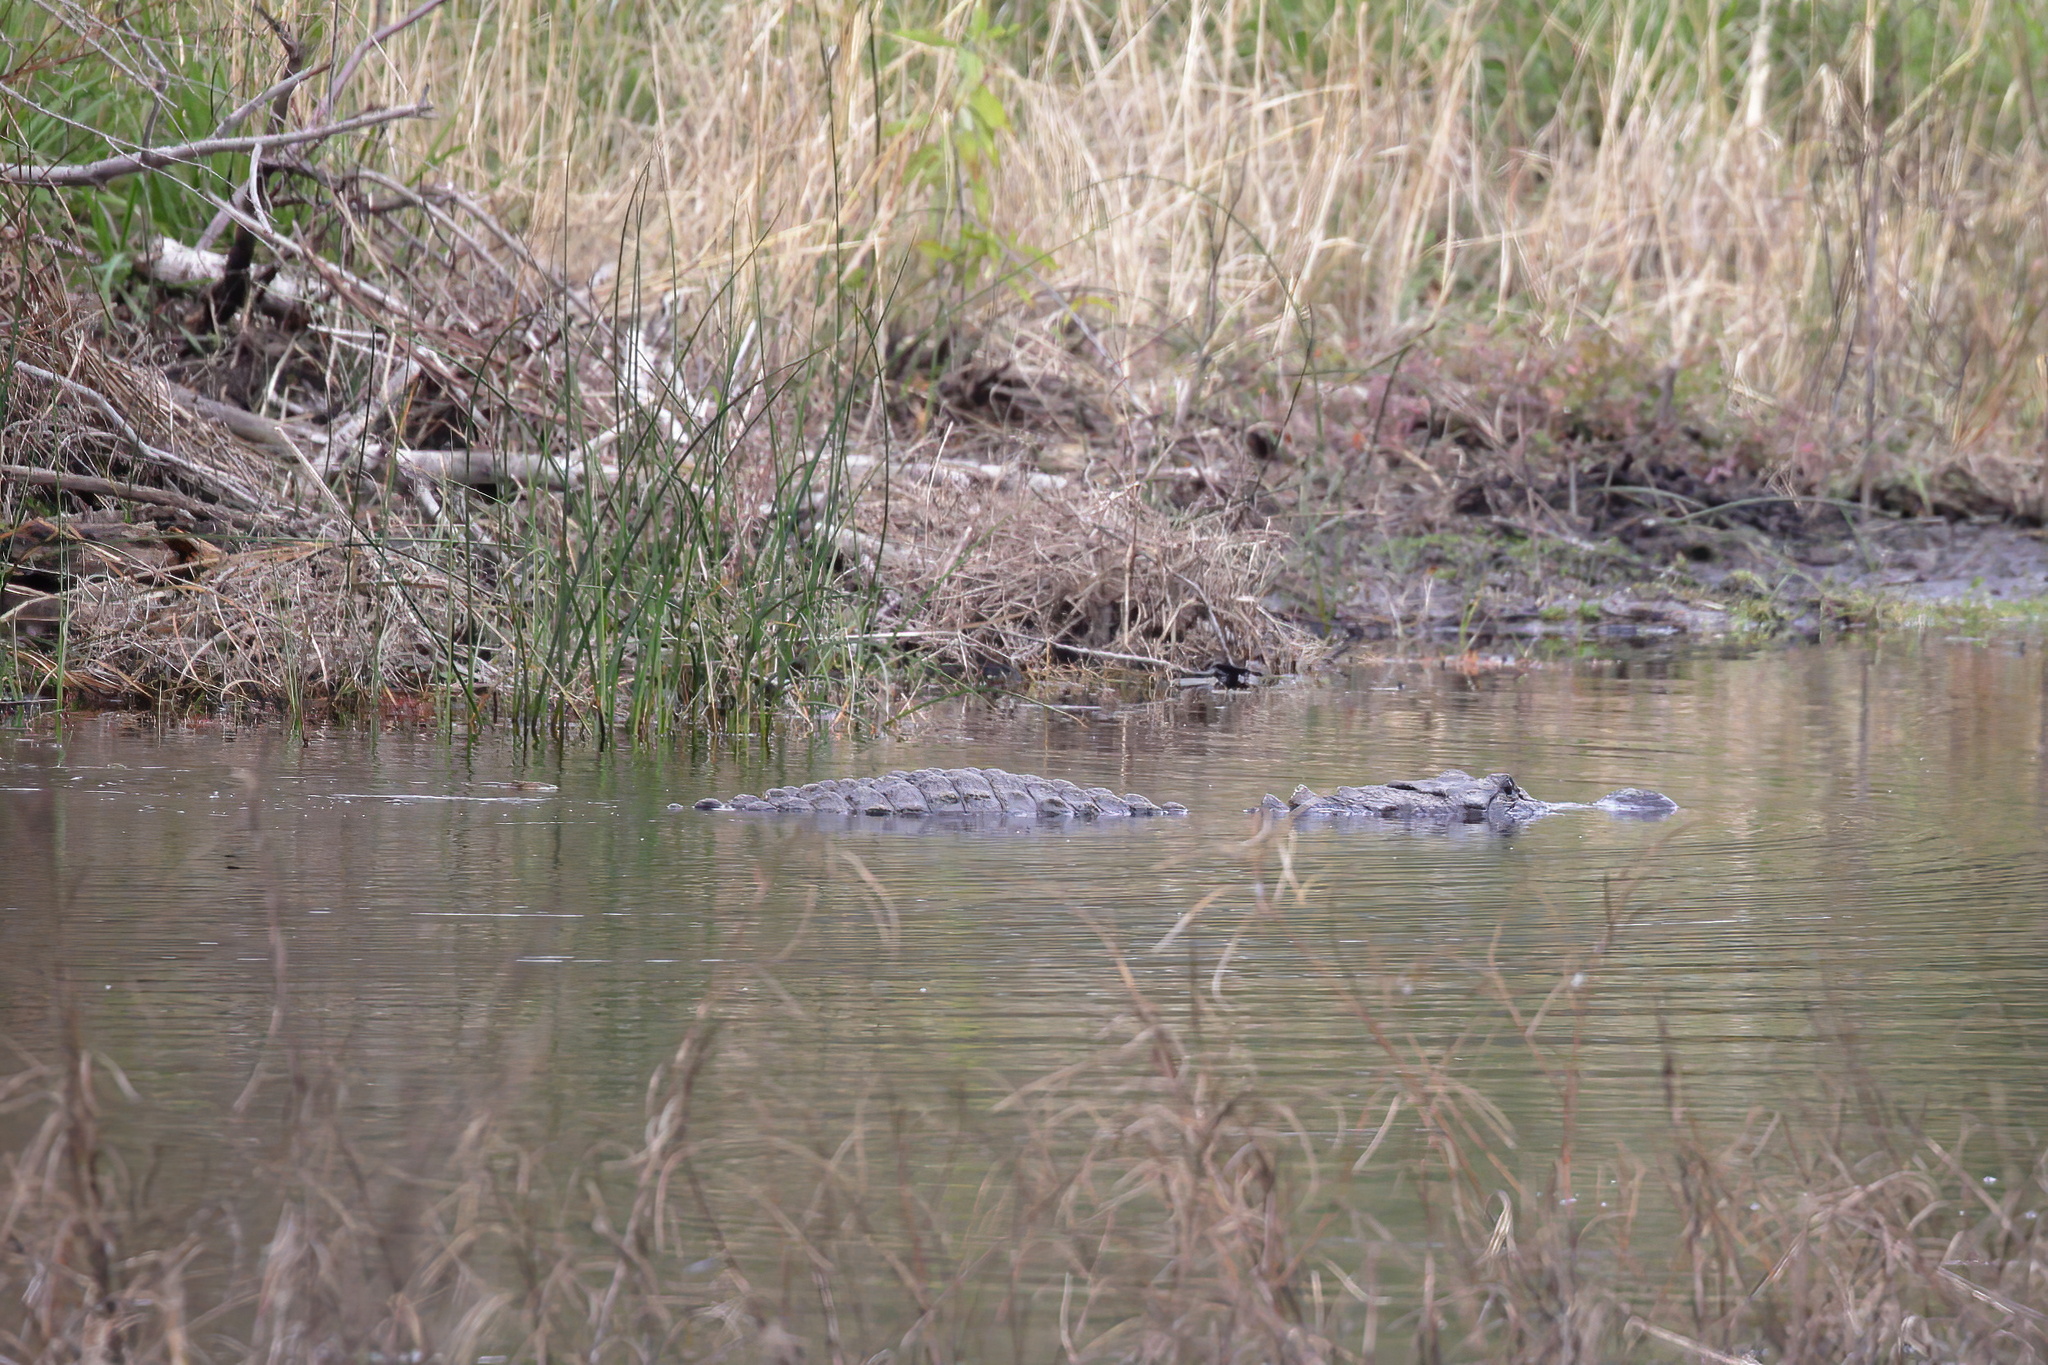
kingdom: Animalia
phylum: Chordata
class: Crocodylia
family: Alligatoridae
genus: Alligator
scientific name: Alligator mississippiensis
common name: American alligator
